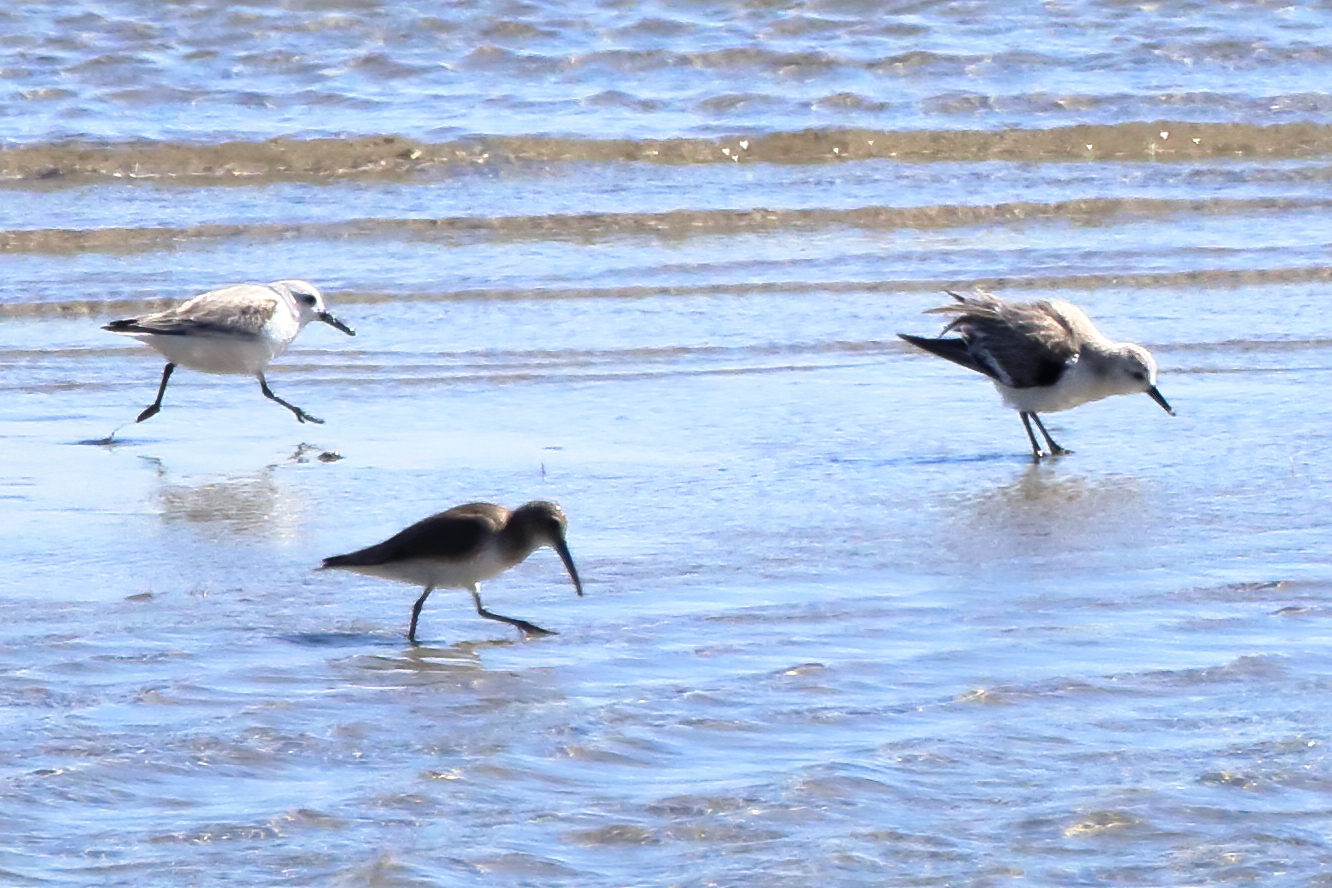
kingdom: Animalia
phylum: Chordata
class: Aves
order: Charadriiformes
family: Scolopacidae
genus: Calidris
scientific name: Calidris alpina
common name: Dunlin
